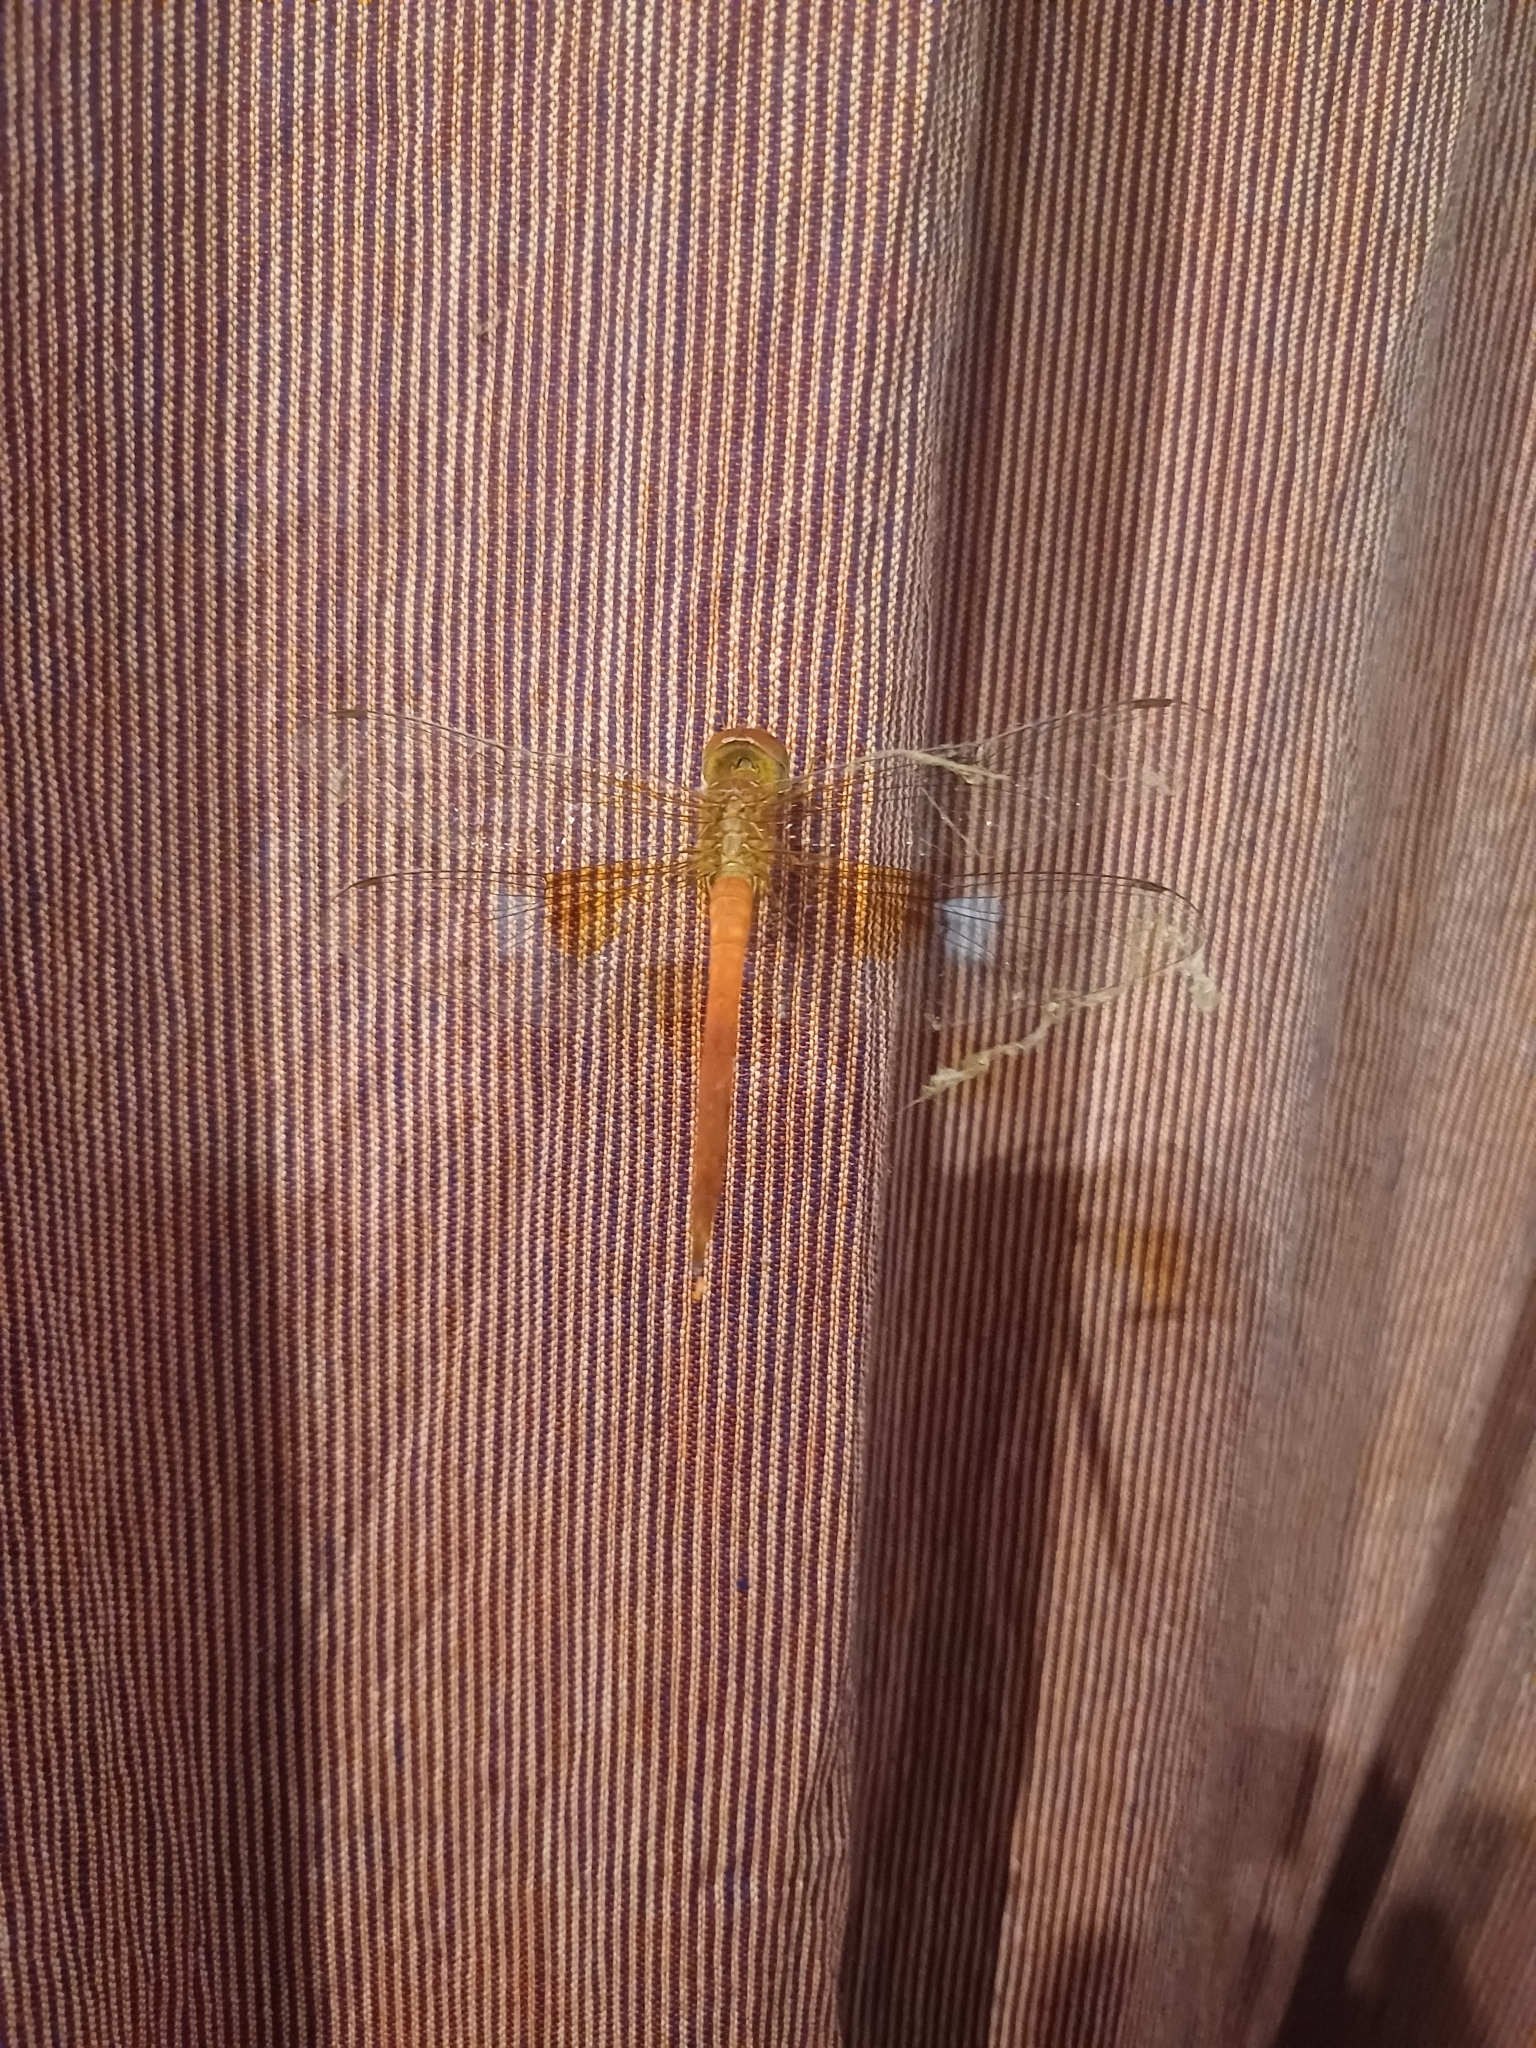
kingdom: Animalia
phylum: Arthropoda
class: Insecta
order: Odonata
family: Libellulidae
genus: Tholymis
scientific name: Tholymis tillarga
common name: Coral-tailed cloud wing
